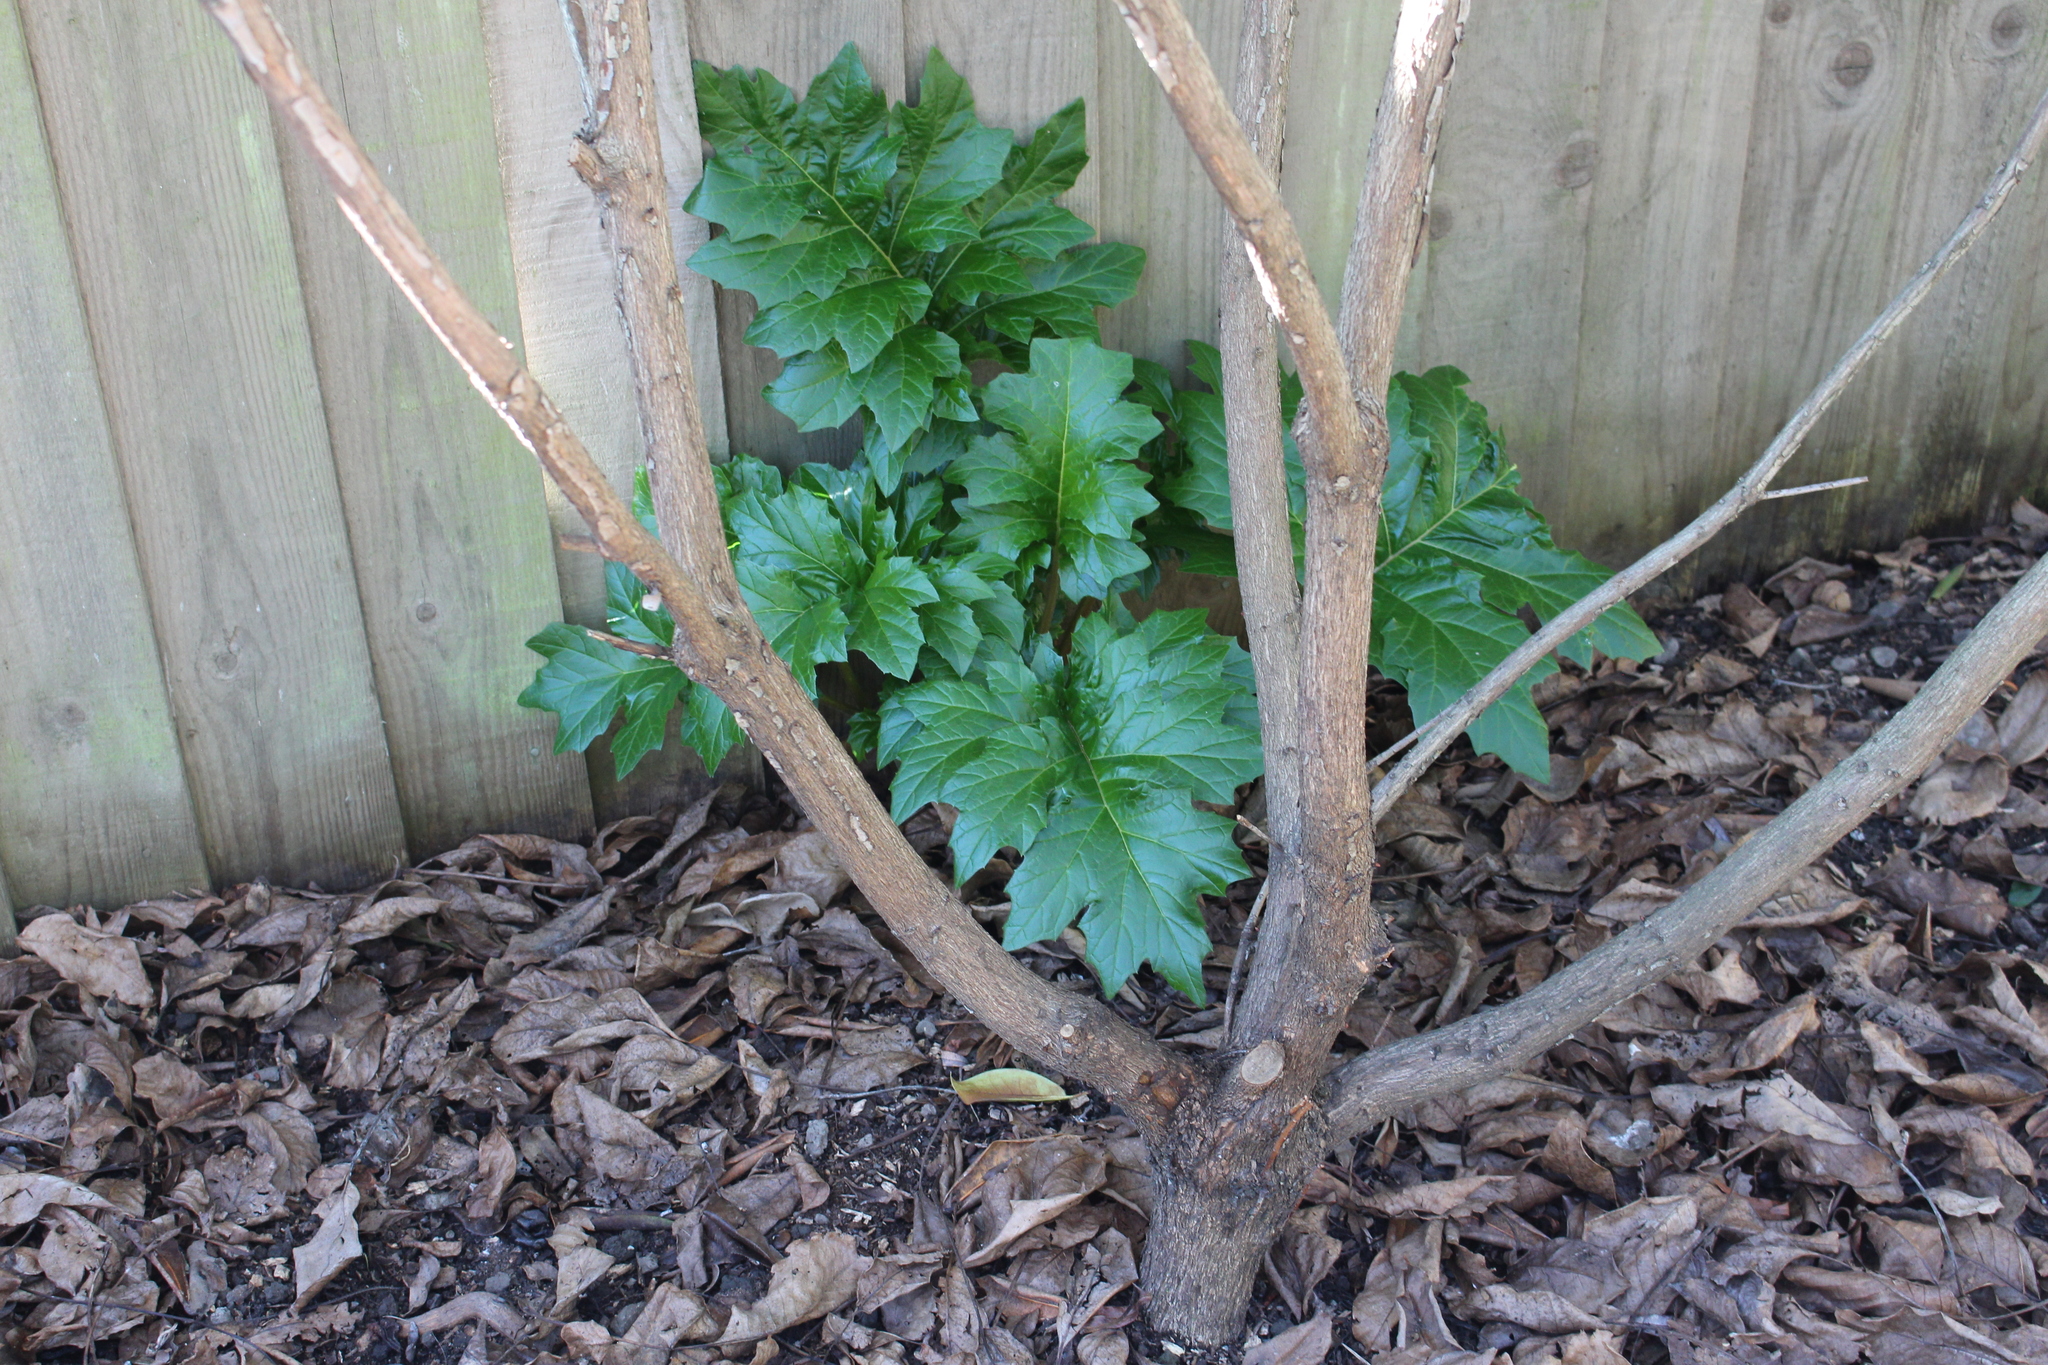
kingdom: Plantae
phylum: Tracheophyta
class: Magnoliopsida
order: Lamiales
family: Acanthaceae
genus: Acanthus
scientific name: Acanthus mollis
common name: Bear's-breech
